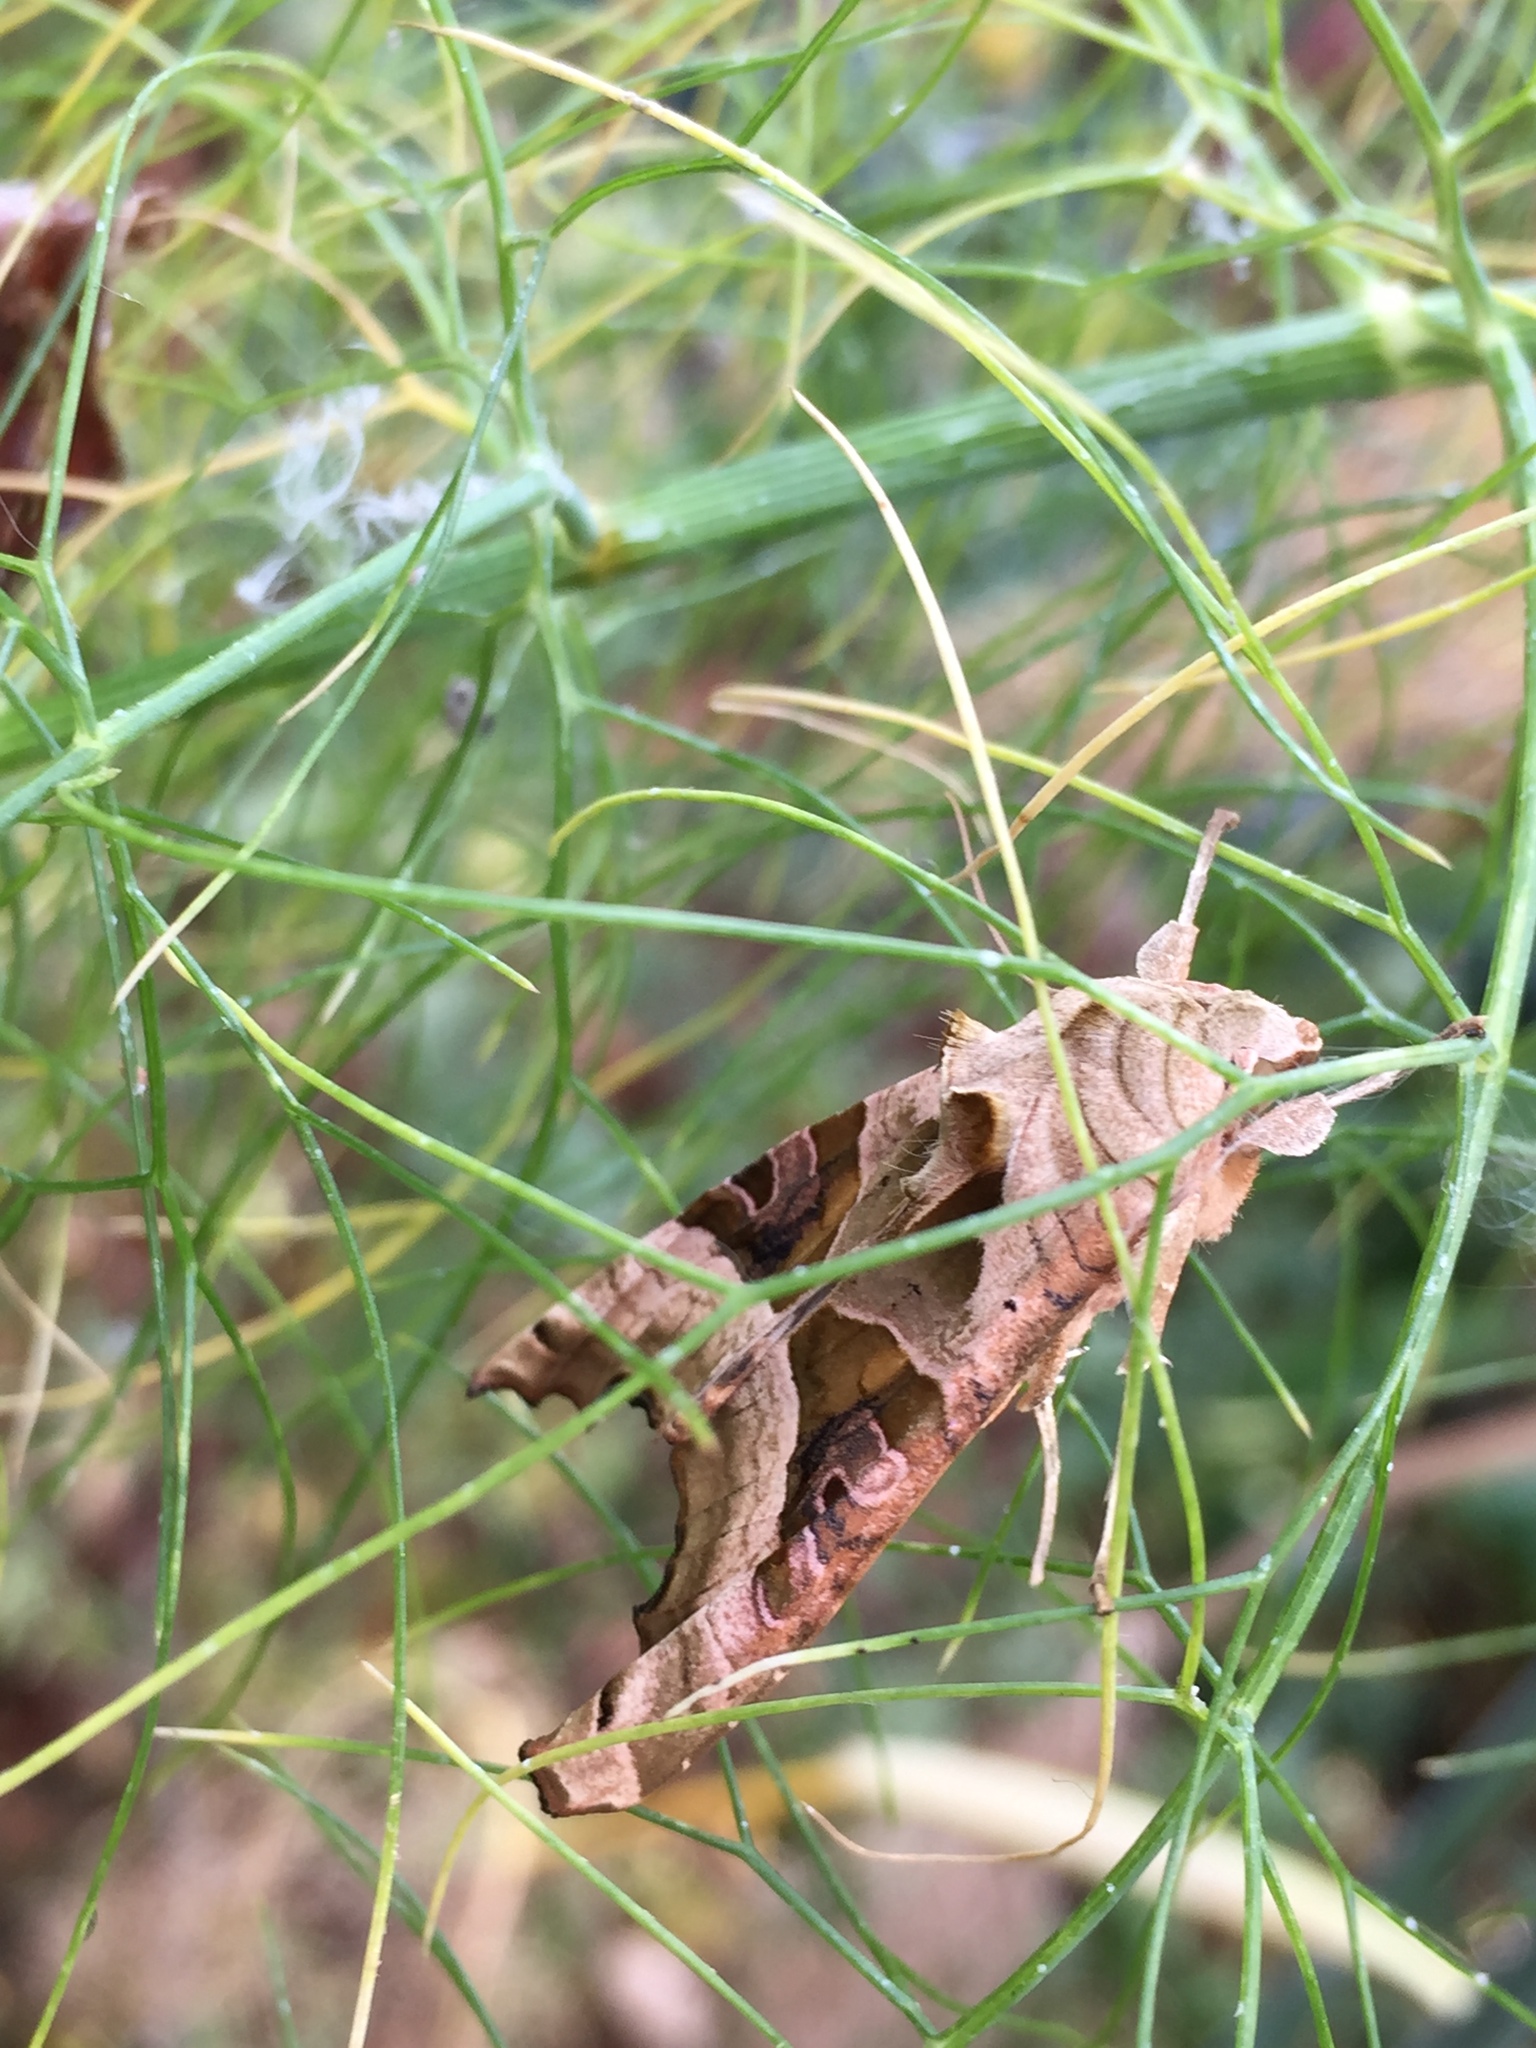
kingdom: Animalia
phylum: Arthropoda
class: Insecta
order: Lepidoptera
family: Noctuidae
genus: Phlogophora
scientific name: Phlogophora meticulosa
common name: Angle shades
